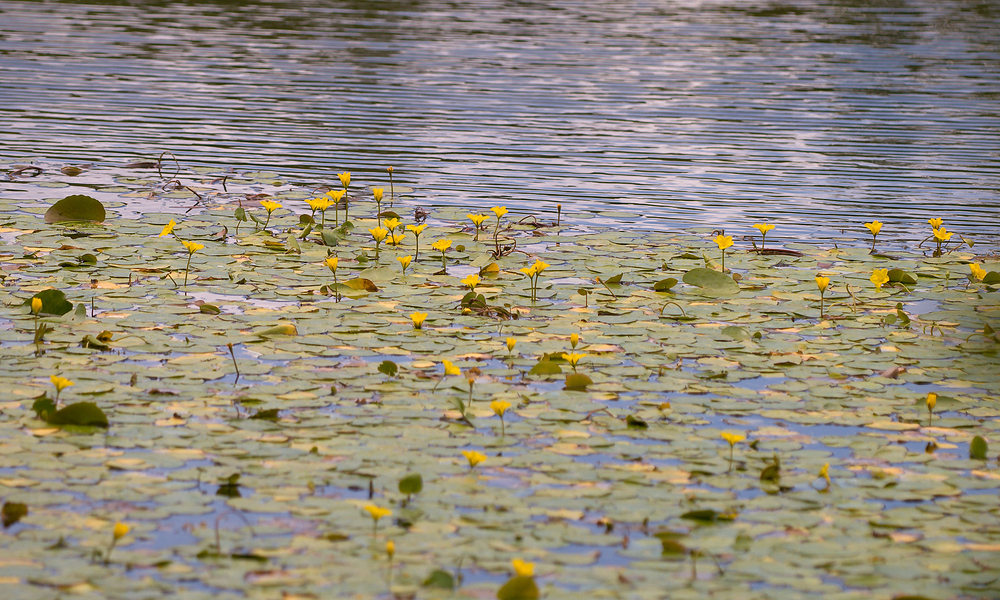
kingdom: Plantae
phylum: Tracheophyta
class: Magnoliopsida
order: Asterales
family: Menyanthaceae
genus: Nymphoides
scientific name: Nymphoides peltata
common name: Fringed water-lily
